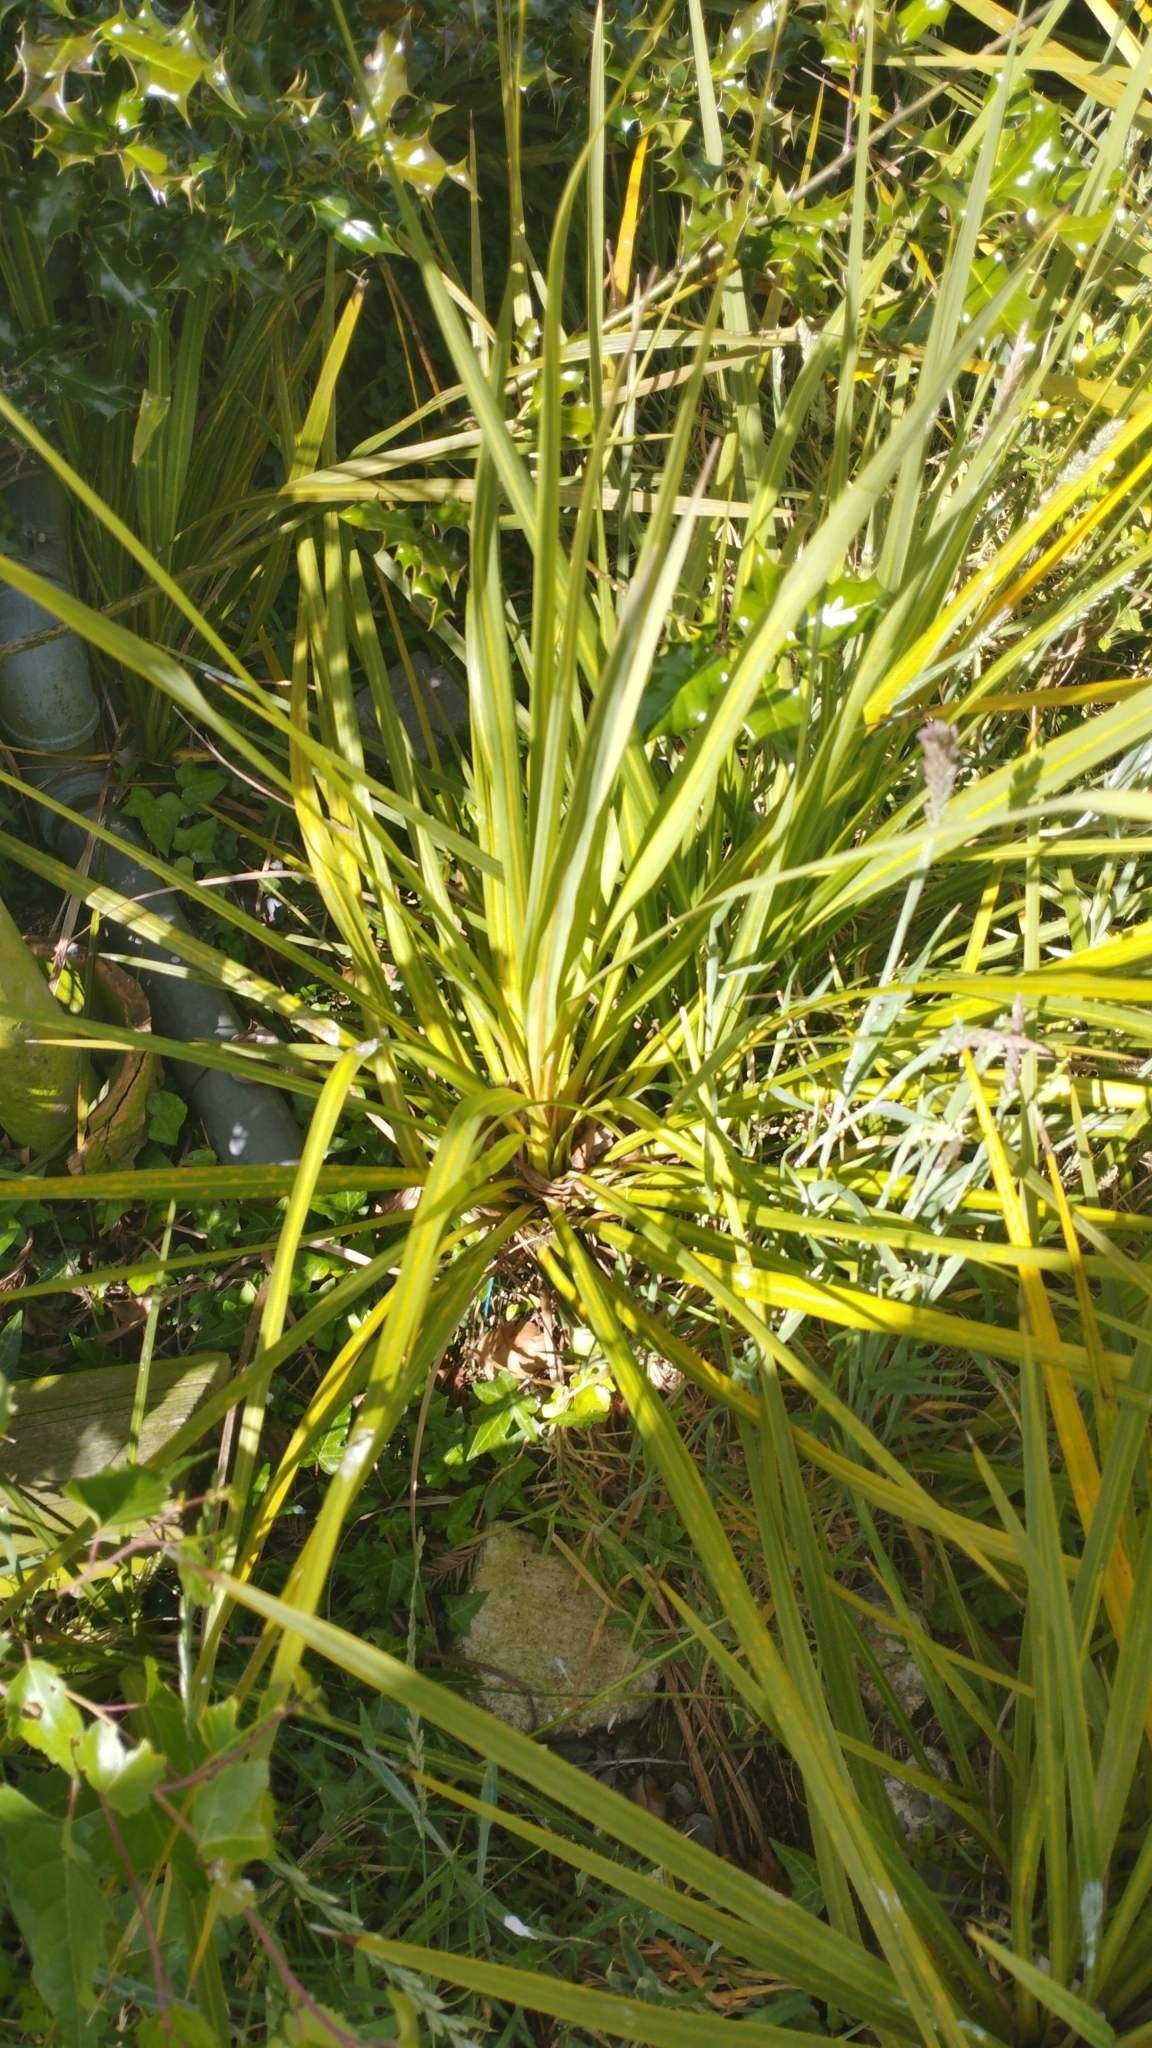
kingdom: Plantae
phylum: Tracheophyta
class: Liliopsida
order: Asparagales
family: Asparagaceae
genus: Cordyline
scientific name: Cordyline australis
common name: Cabbage-palm
